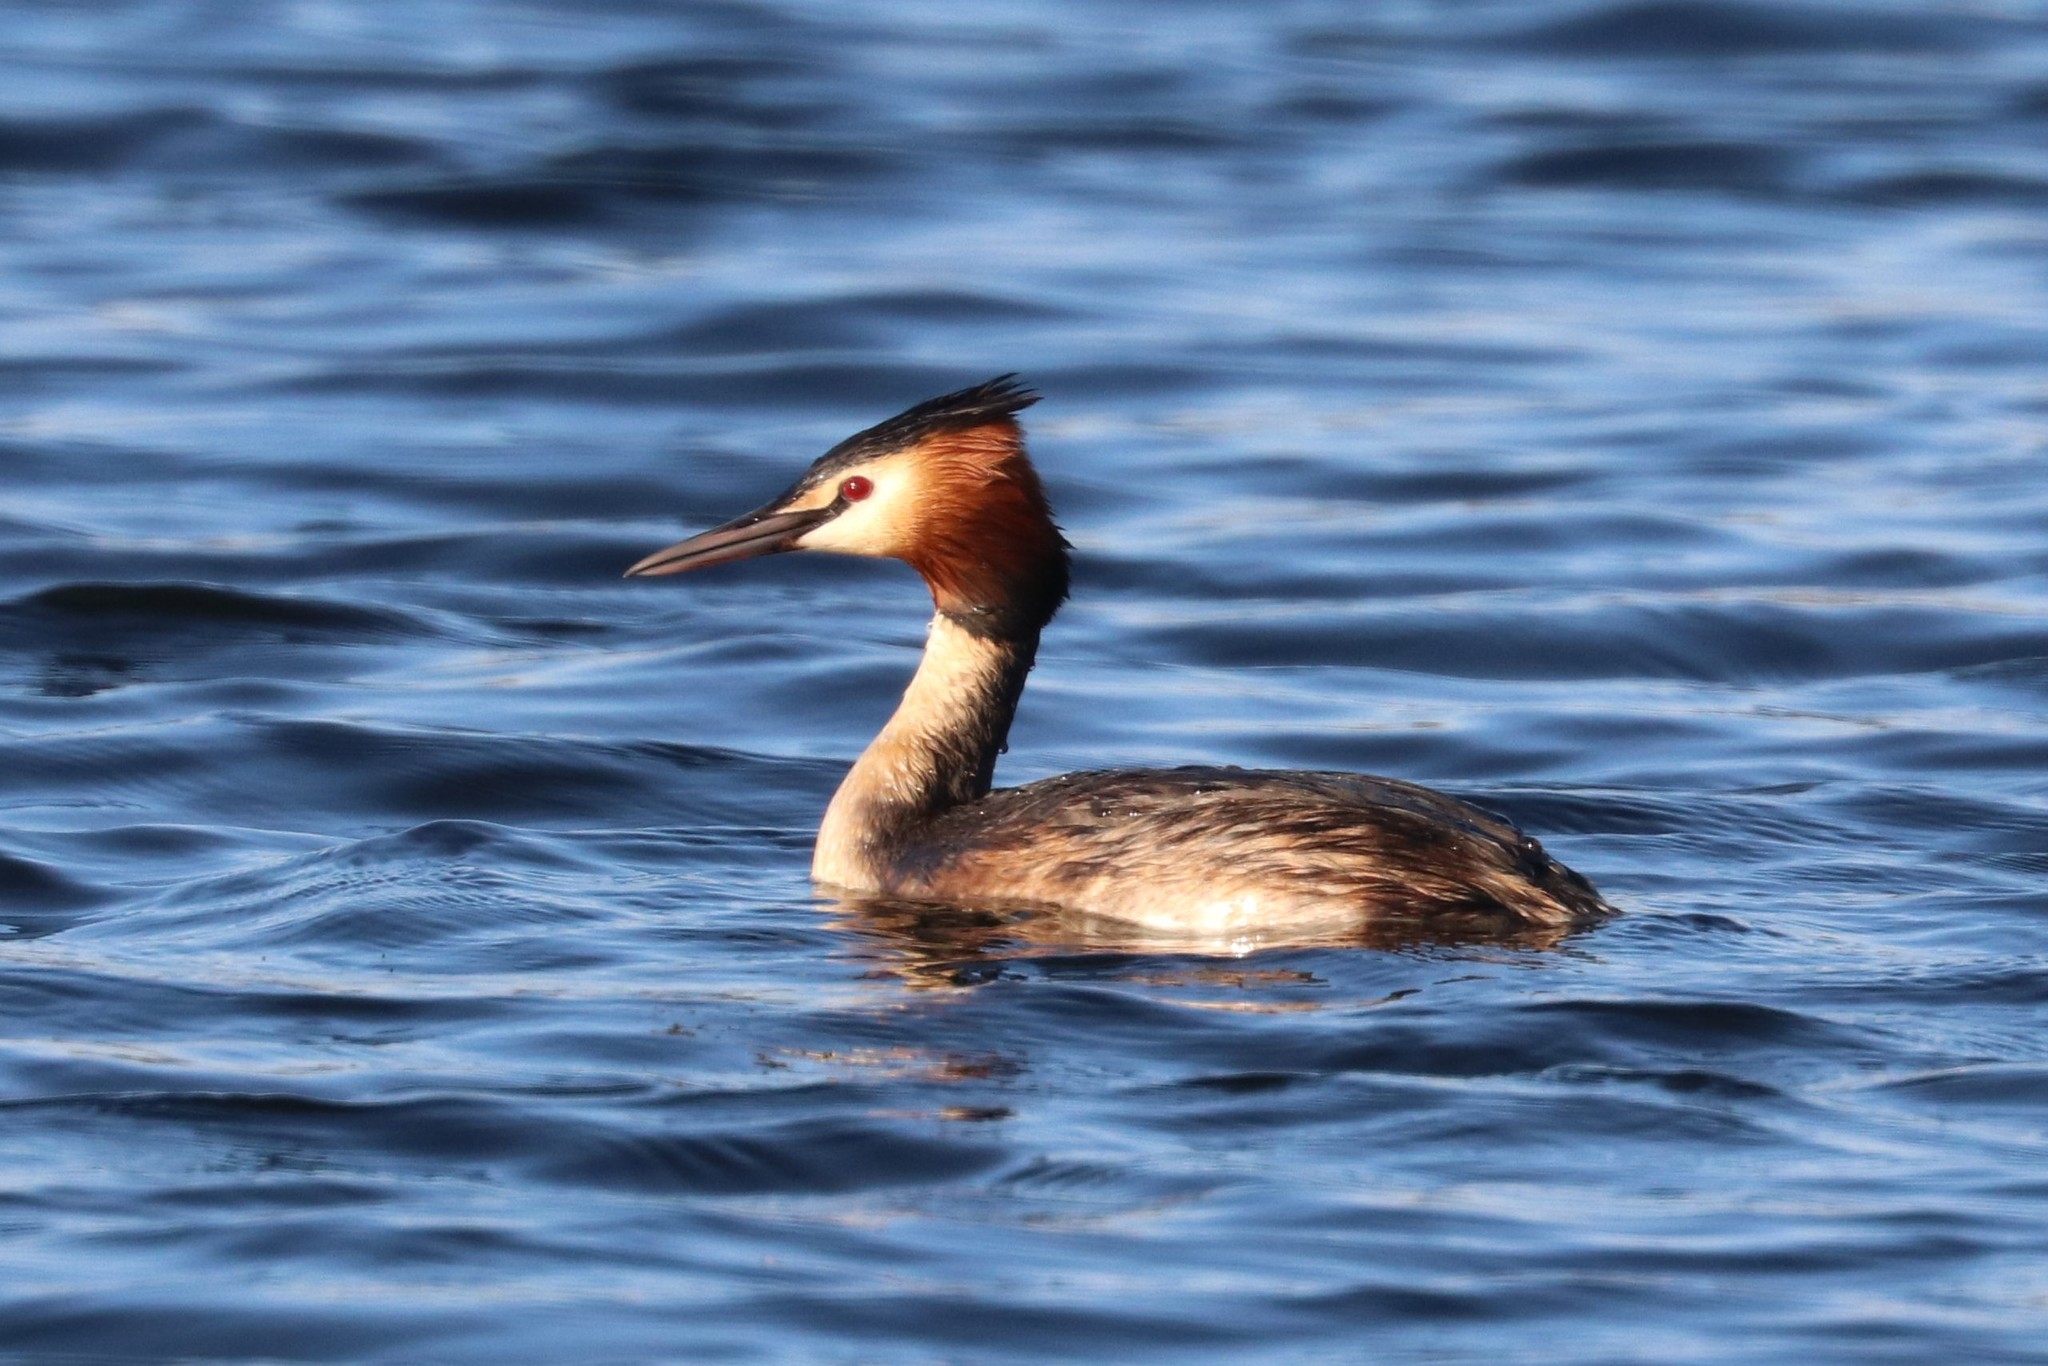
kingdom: Animalia
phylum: Chordata
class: Aves
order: Podicipediformes
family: Podicipedidae
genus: Podiceps
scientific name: Podiceps cristatus
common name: Great crested grebe
